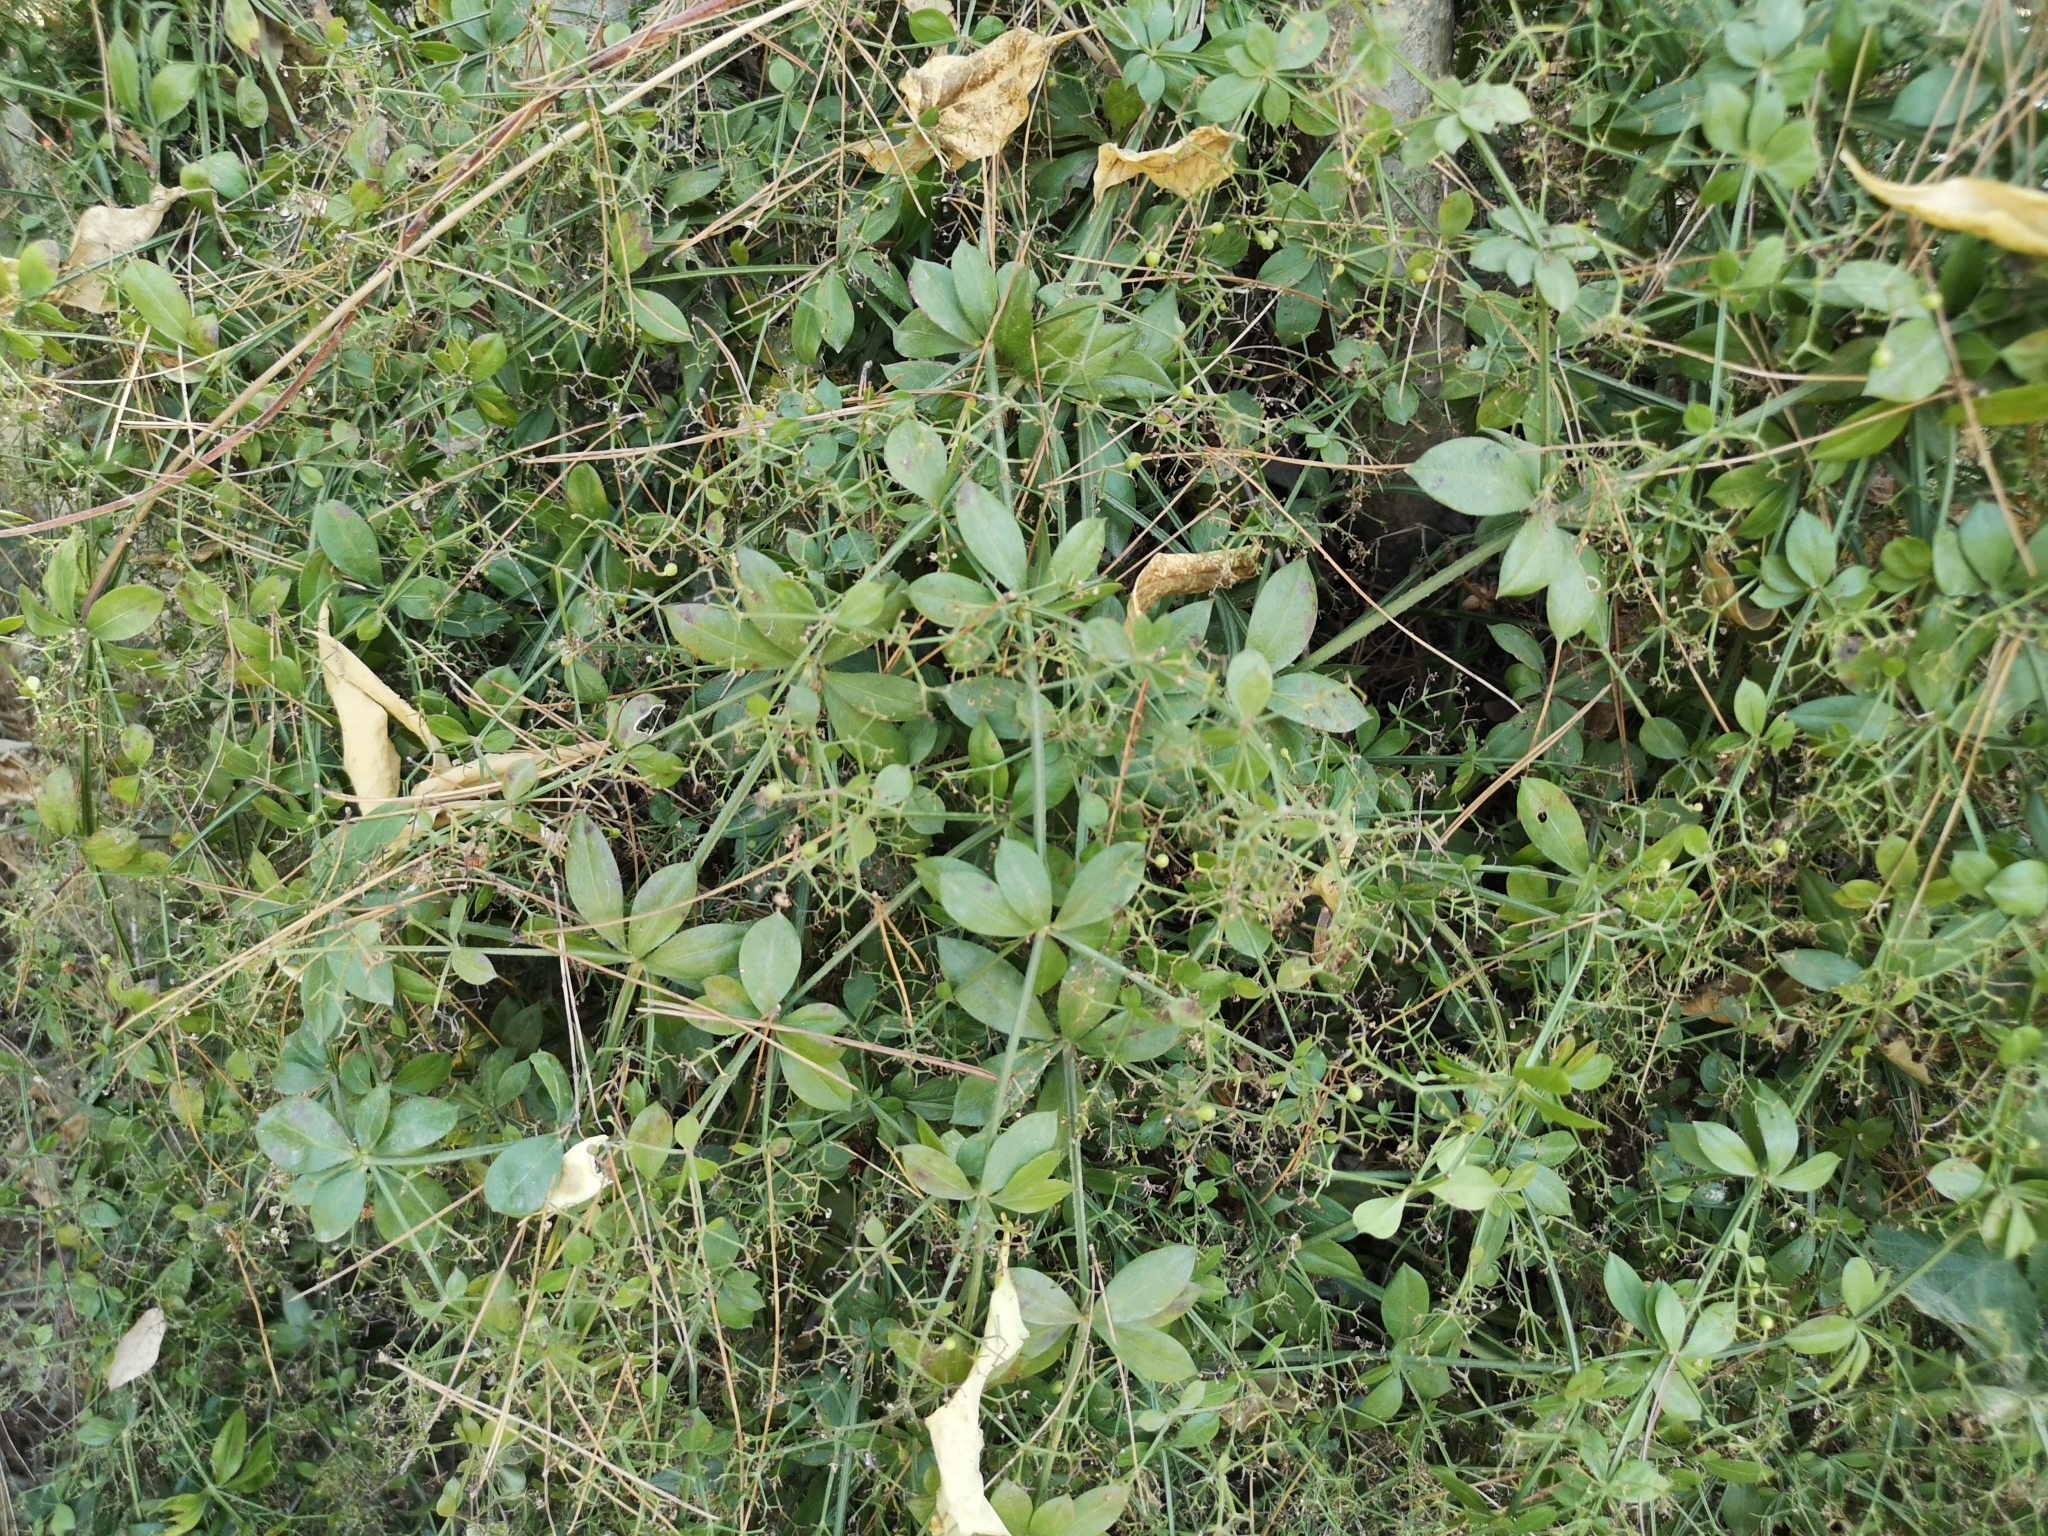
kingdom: Plantae
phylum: Tracheophyta
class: Magnoliopsida
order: Gentianales
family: Rubiaceae
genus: Rubia
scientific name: Rubia peregrina
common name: Wild madder
